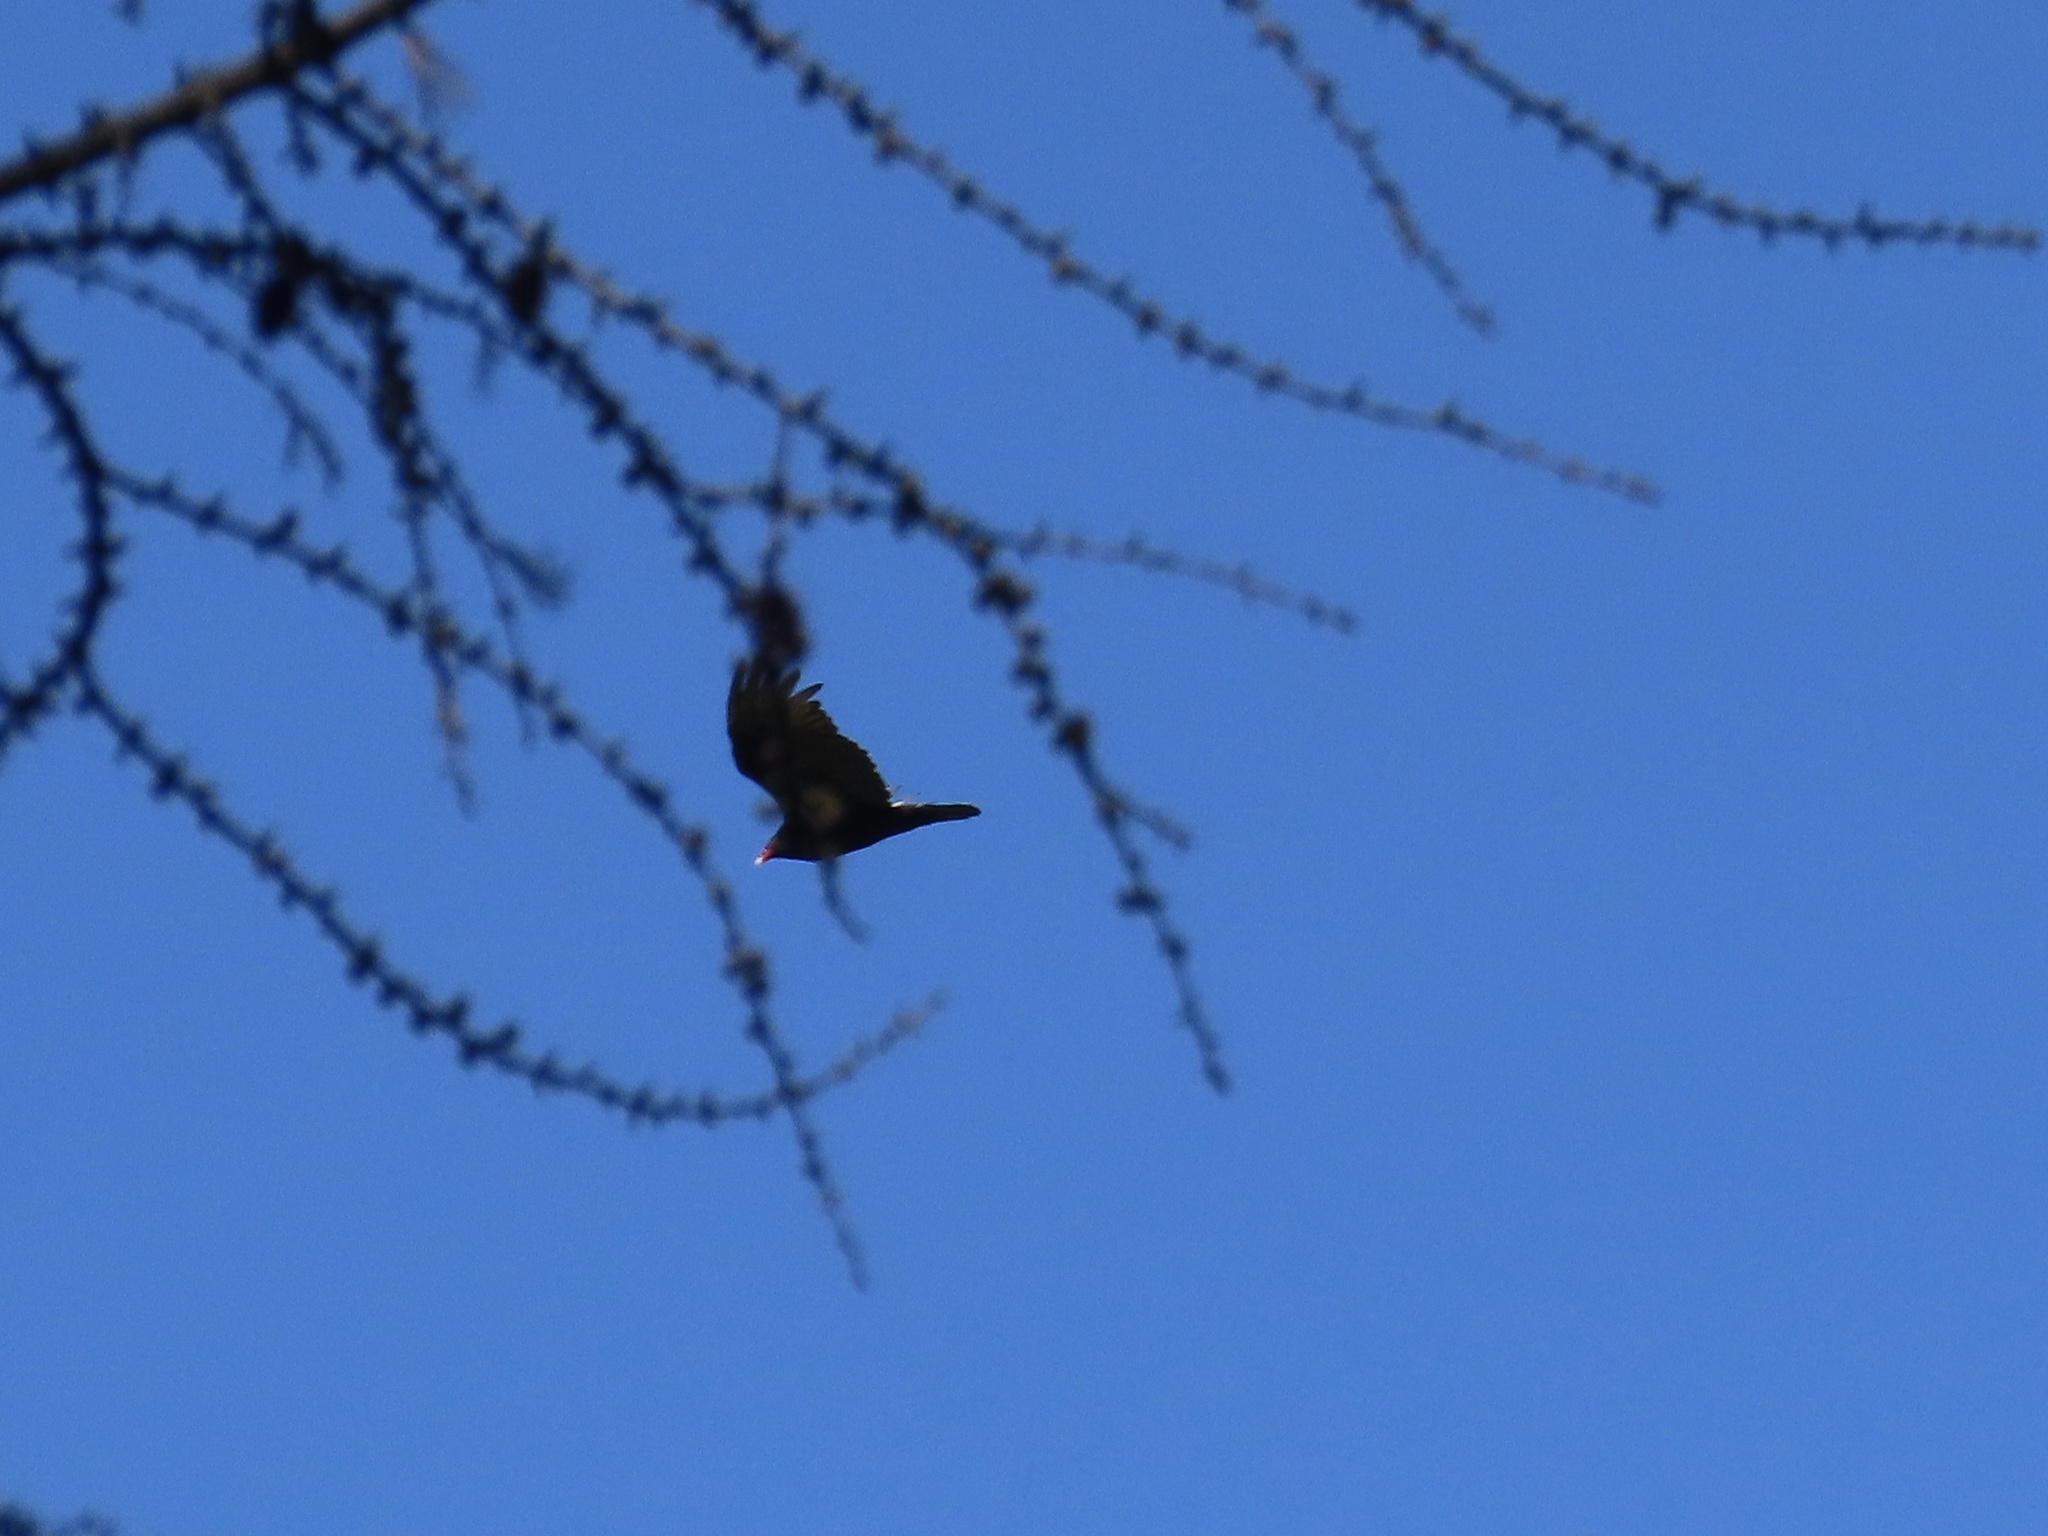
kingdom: Animalia
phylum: Chordata
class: Aves
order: Accipitriformes
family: Cathartidae
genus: Cathartes
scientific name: Cathartes aura
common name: Turkey vulture
